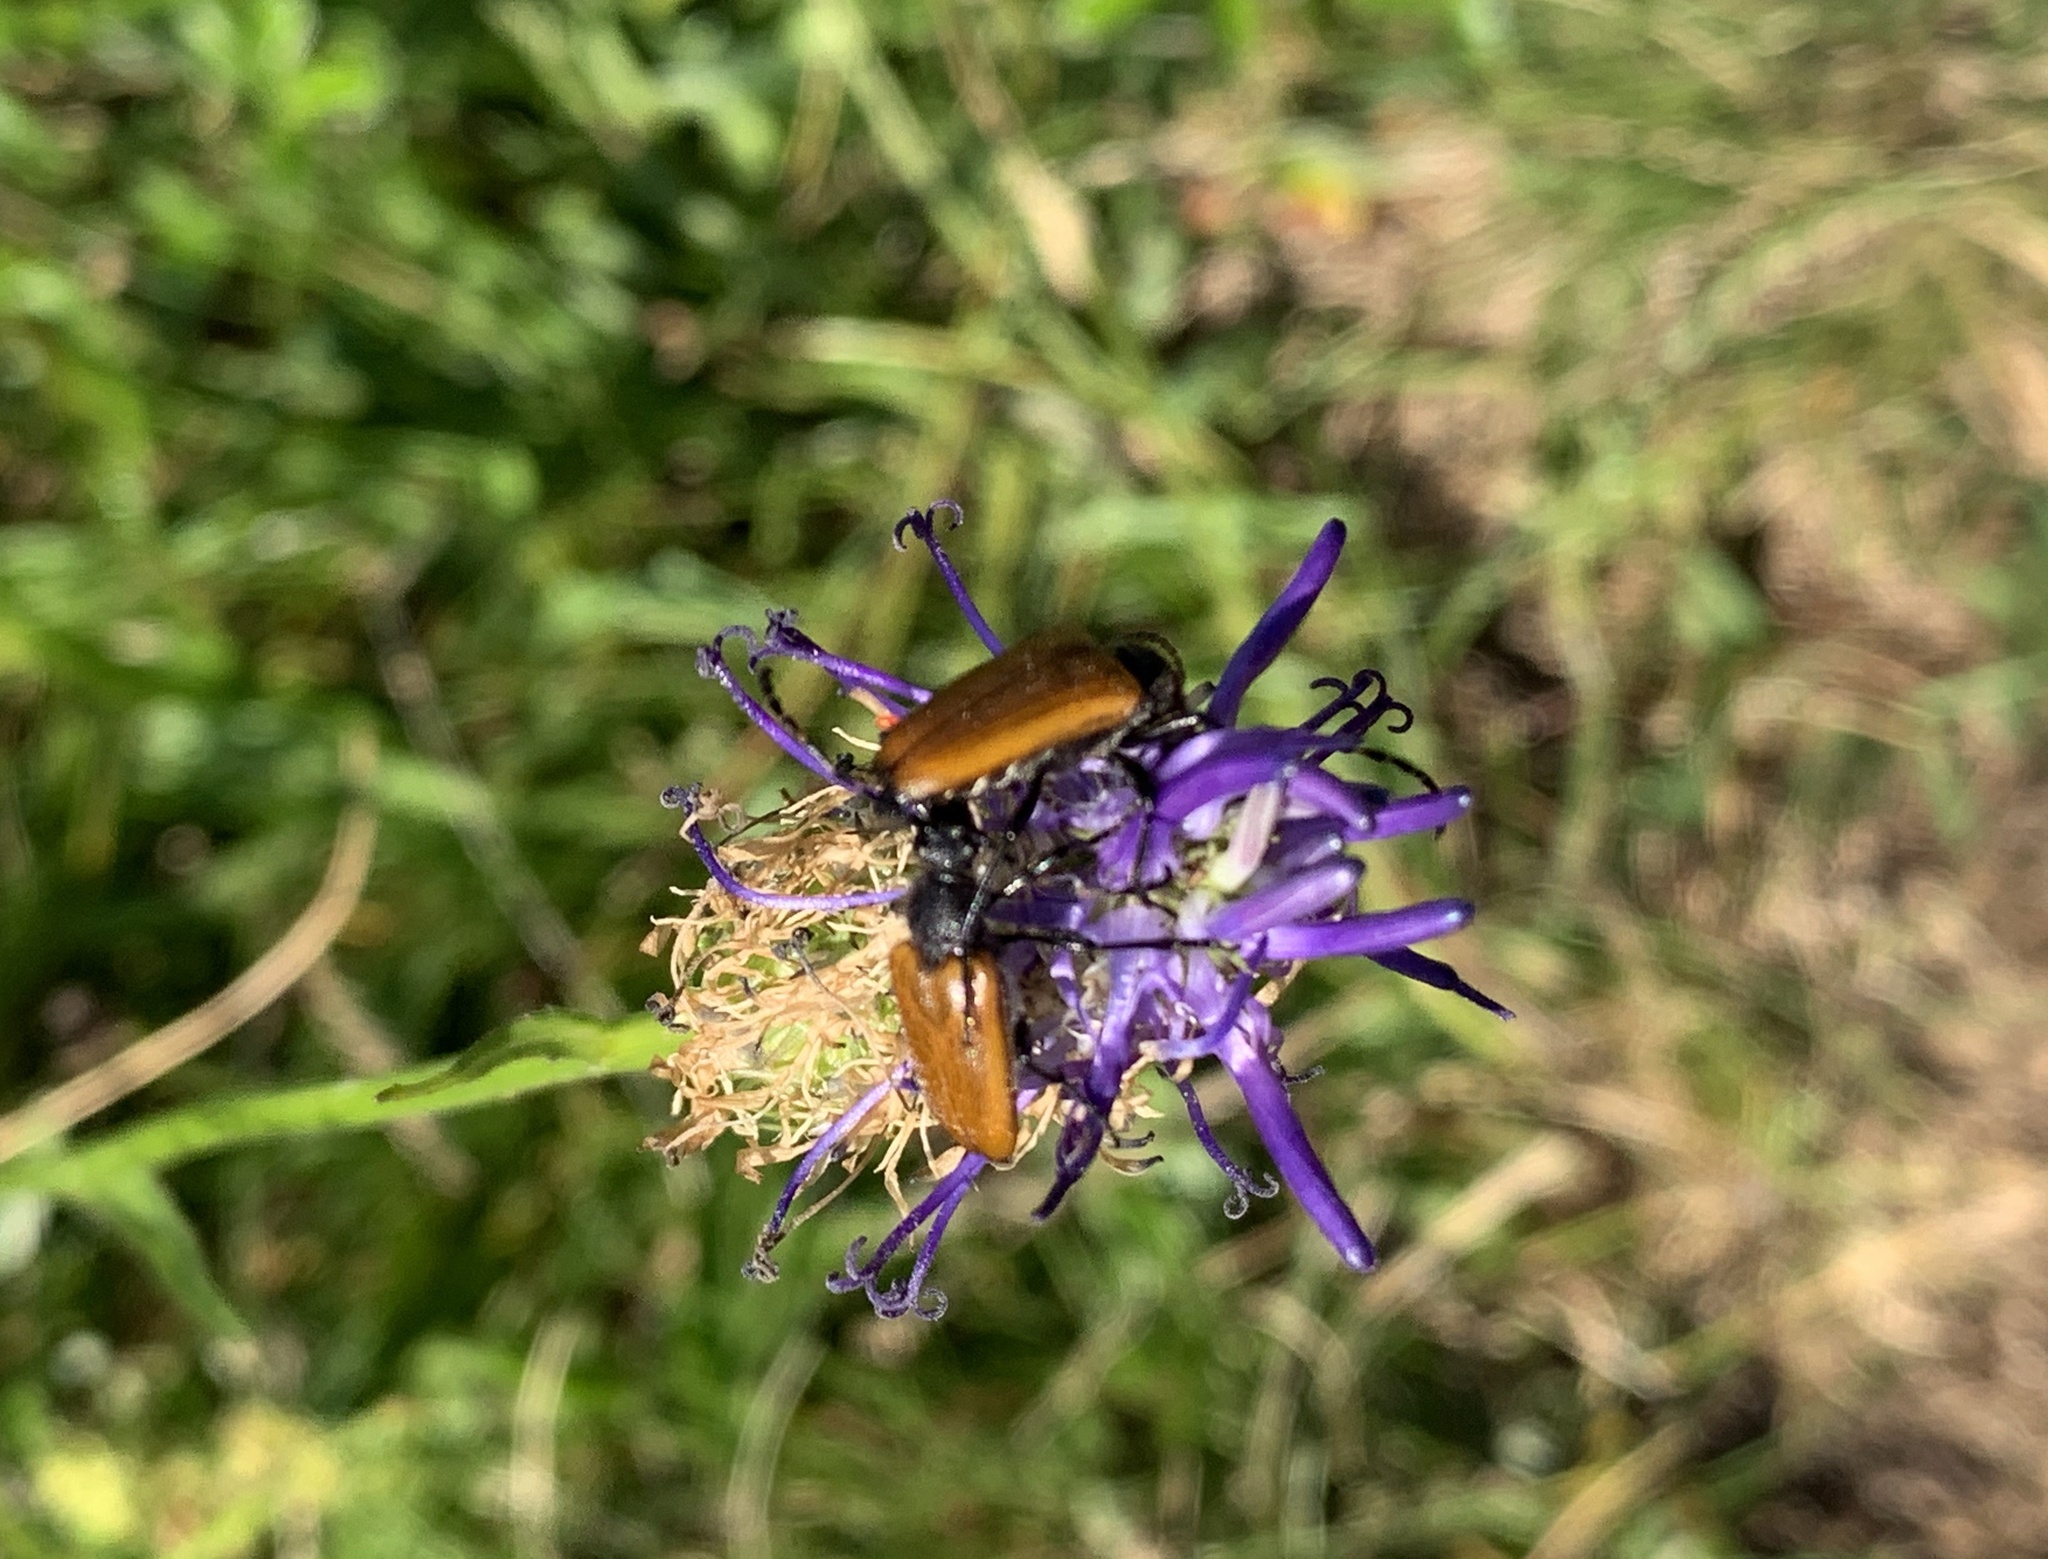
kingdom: Animalia
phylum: Arthropoda
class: Insecta
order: Coleoptera
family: Cerambycidae
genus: Paracorymbia
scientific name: Paracorymbia fulva
